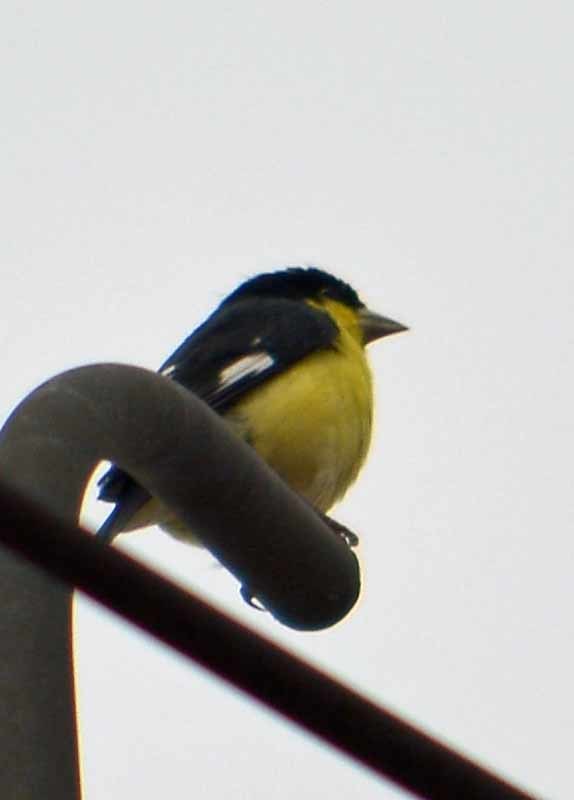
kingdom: Animalia
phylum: Chordata
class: Aves
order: Passeriformes
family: Fringillidae
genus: Spinus
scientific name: Spinus psaltria
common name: Lesser goldfinch
